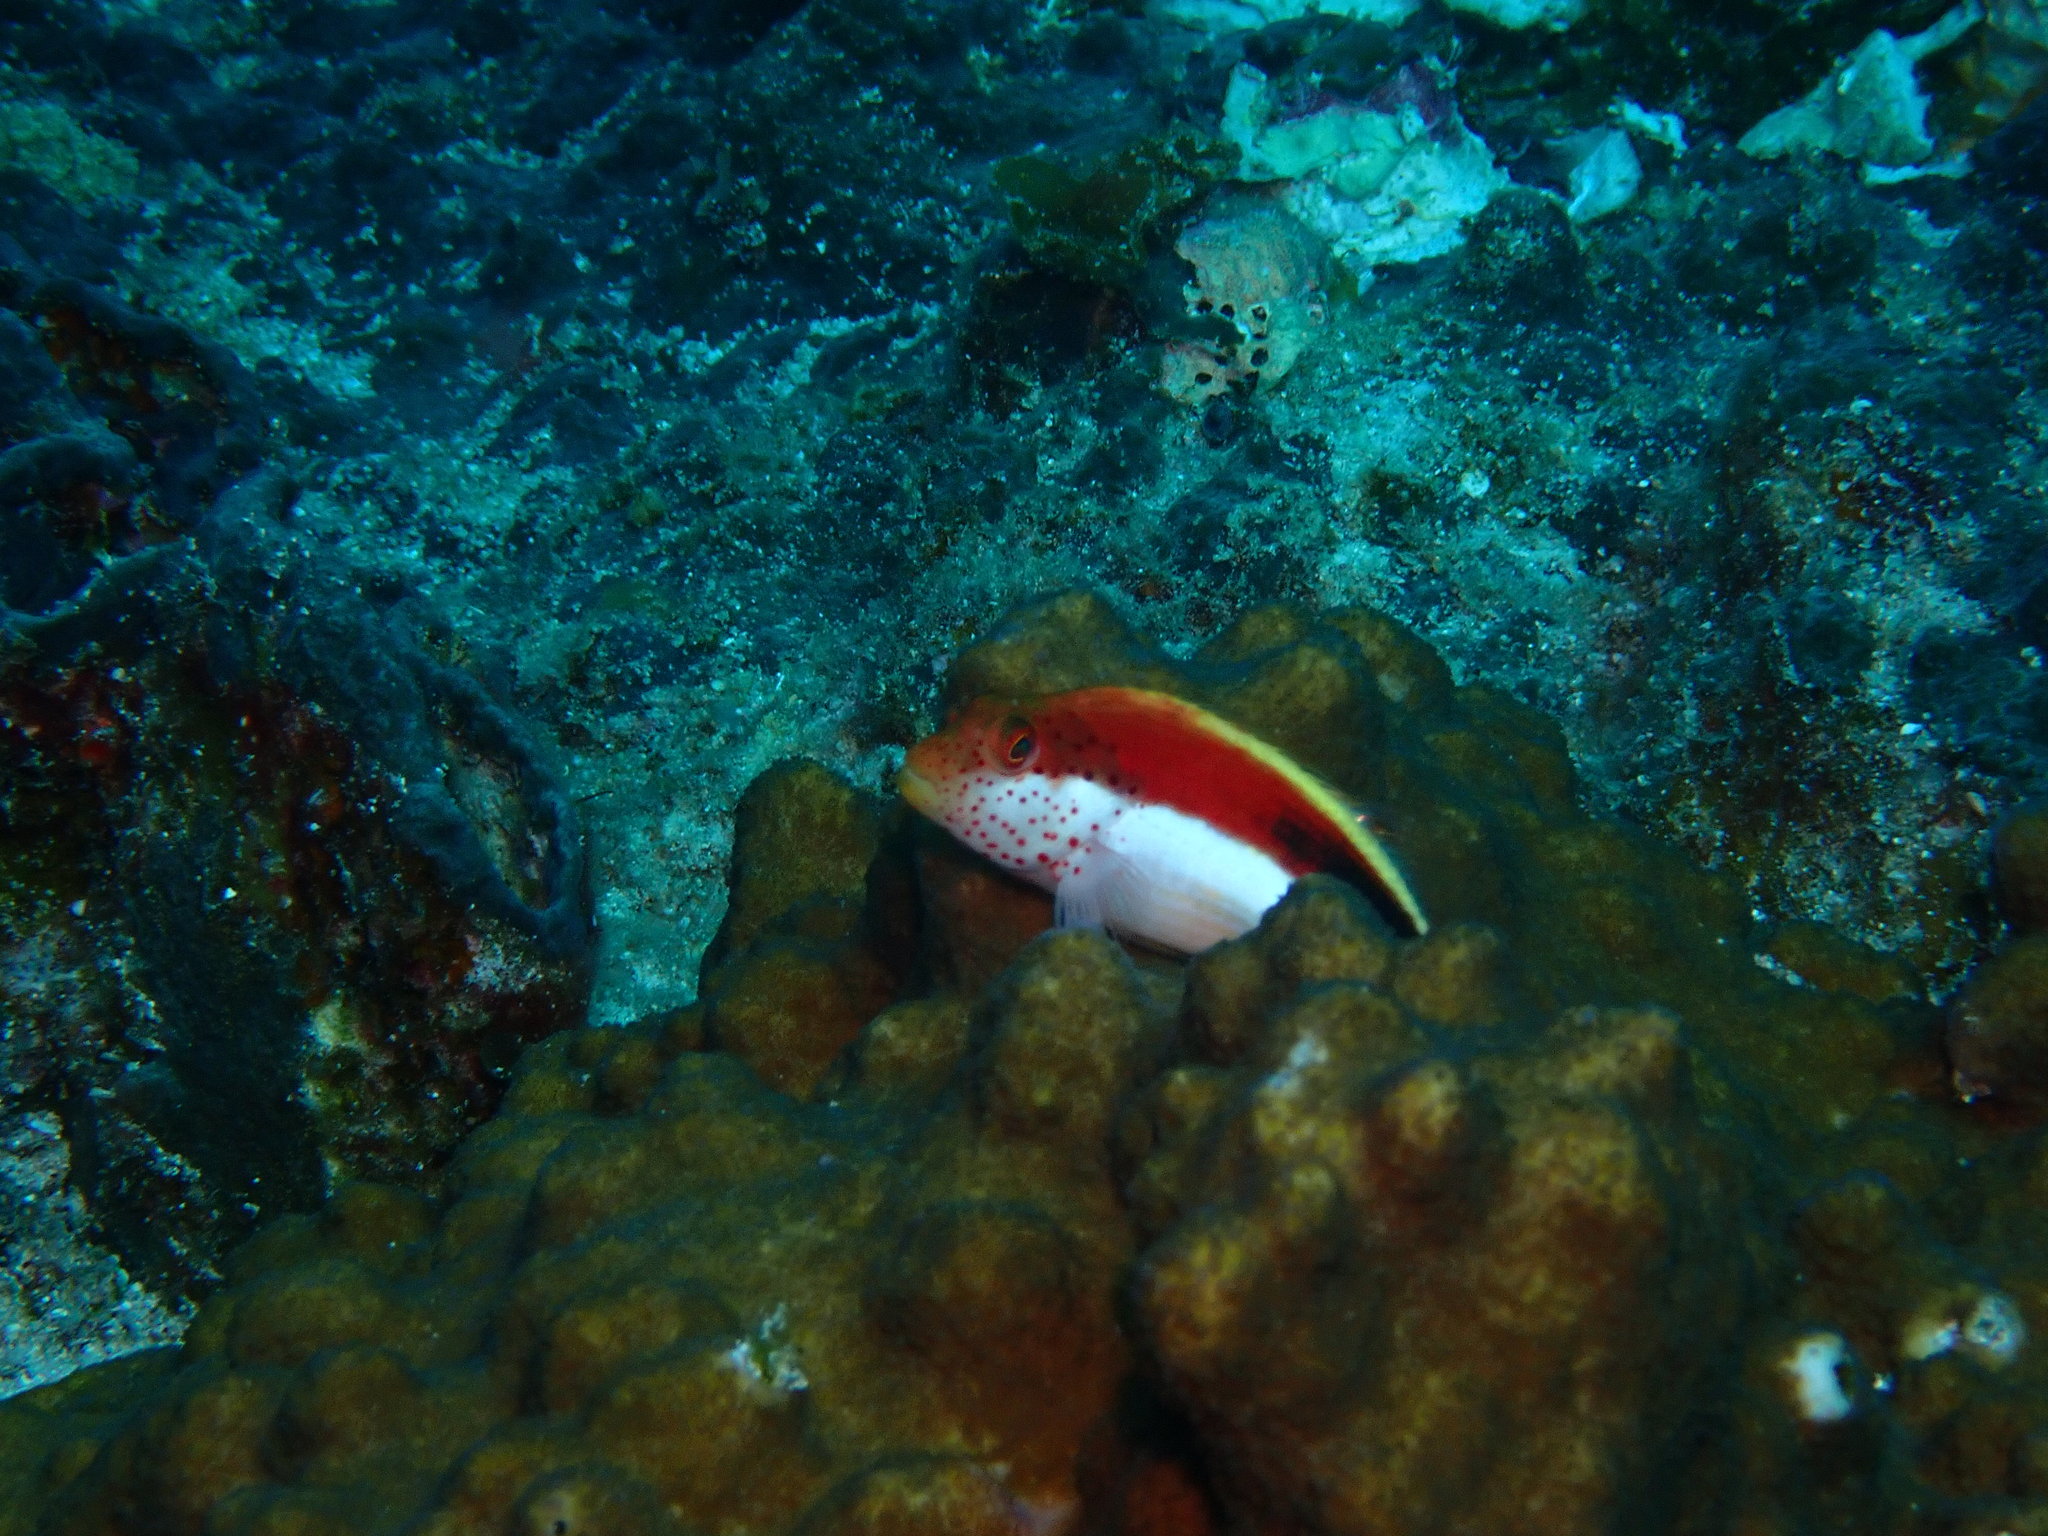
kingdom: Animalia
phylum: Chordata
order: Perciformes
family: Cirrhitidae
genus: Paracirrhites
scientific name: Paracirrhites forsteri
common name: Freckled hawkfish
